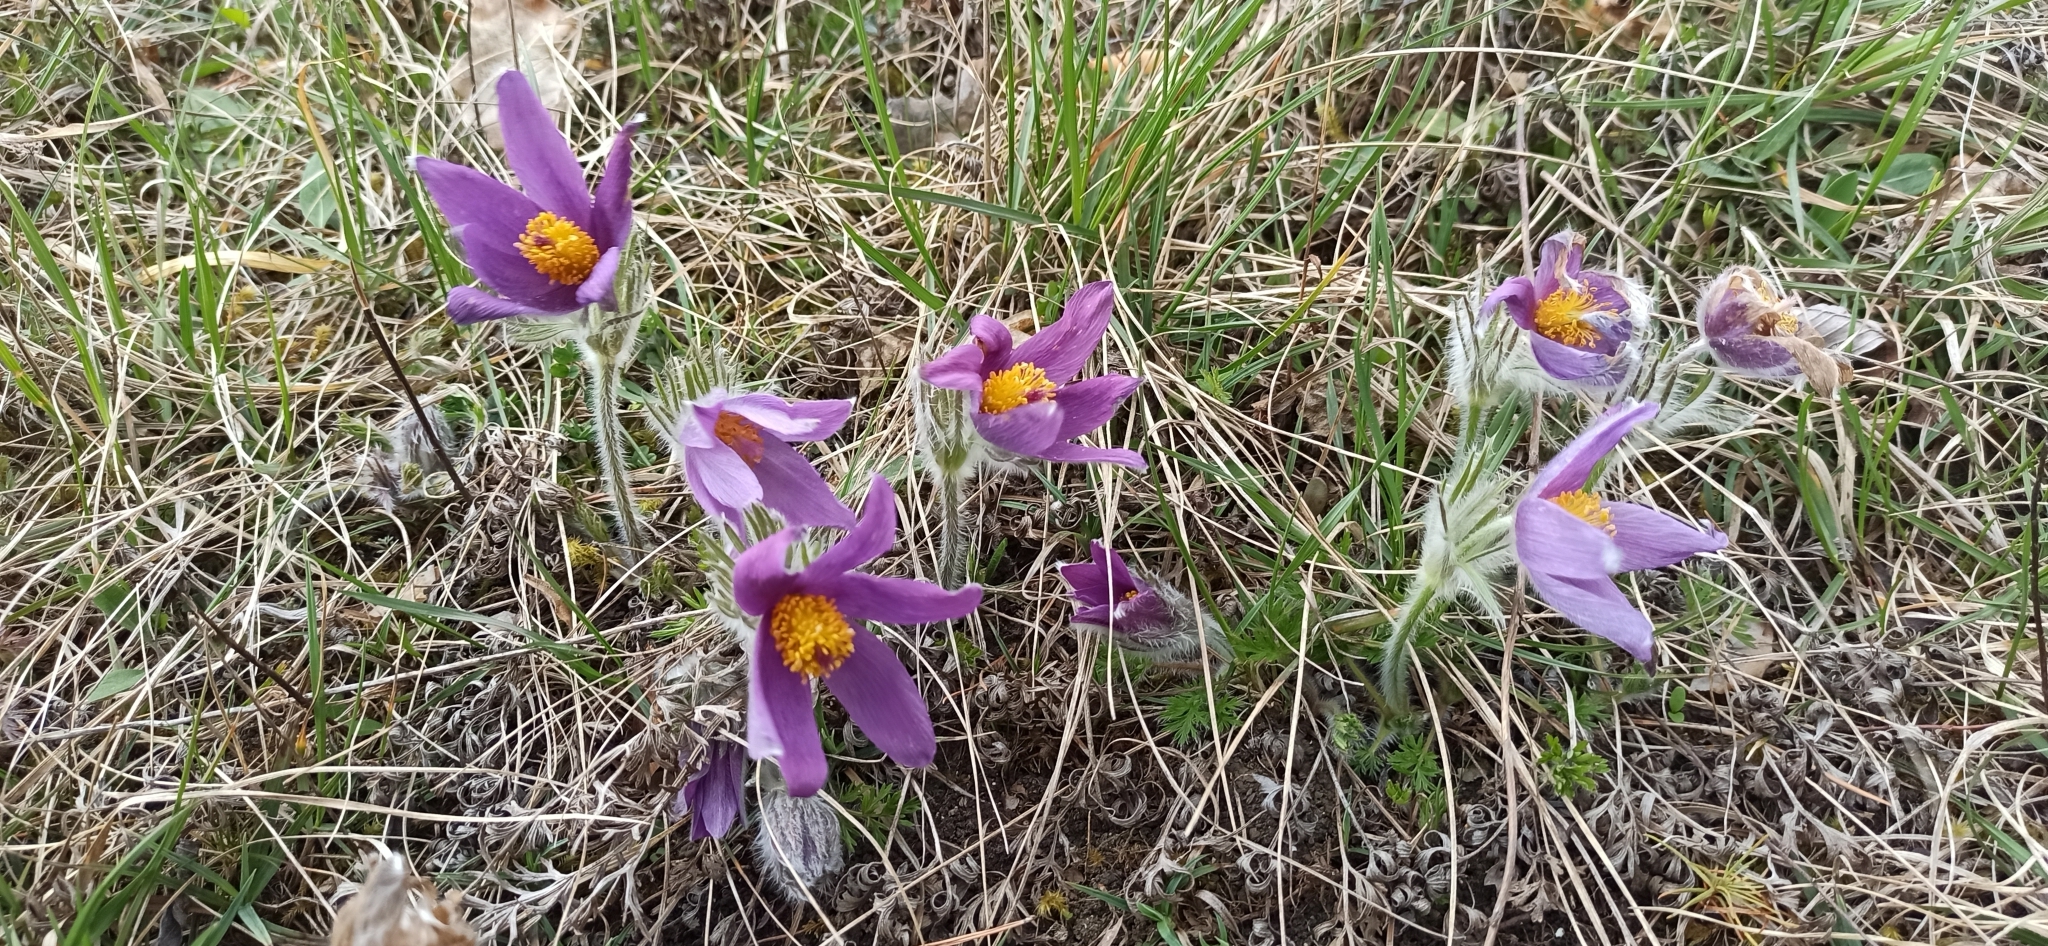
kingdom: Plantae
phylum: Tracheophyta
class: Magnoliopsida
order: Ranunculales
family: Ranunculaceae
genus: Pulsatilla
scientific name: Pulsatilla vulgaris
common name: Pasqueflower
